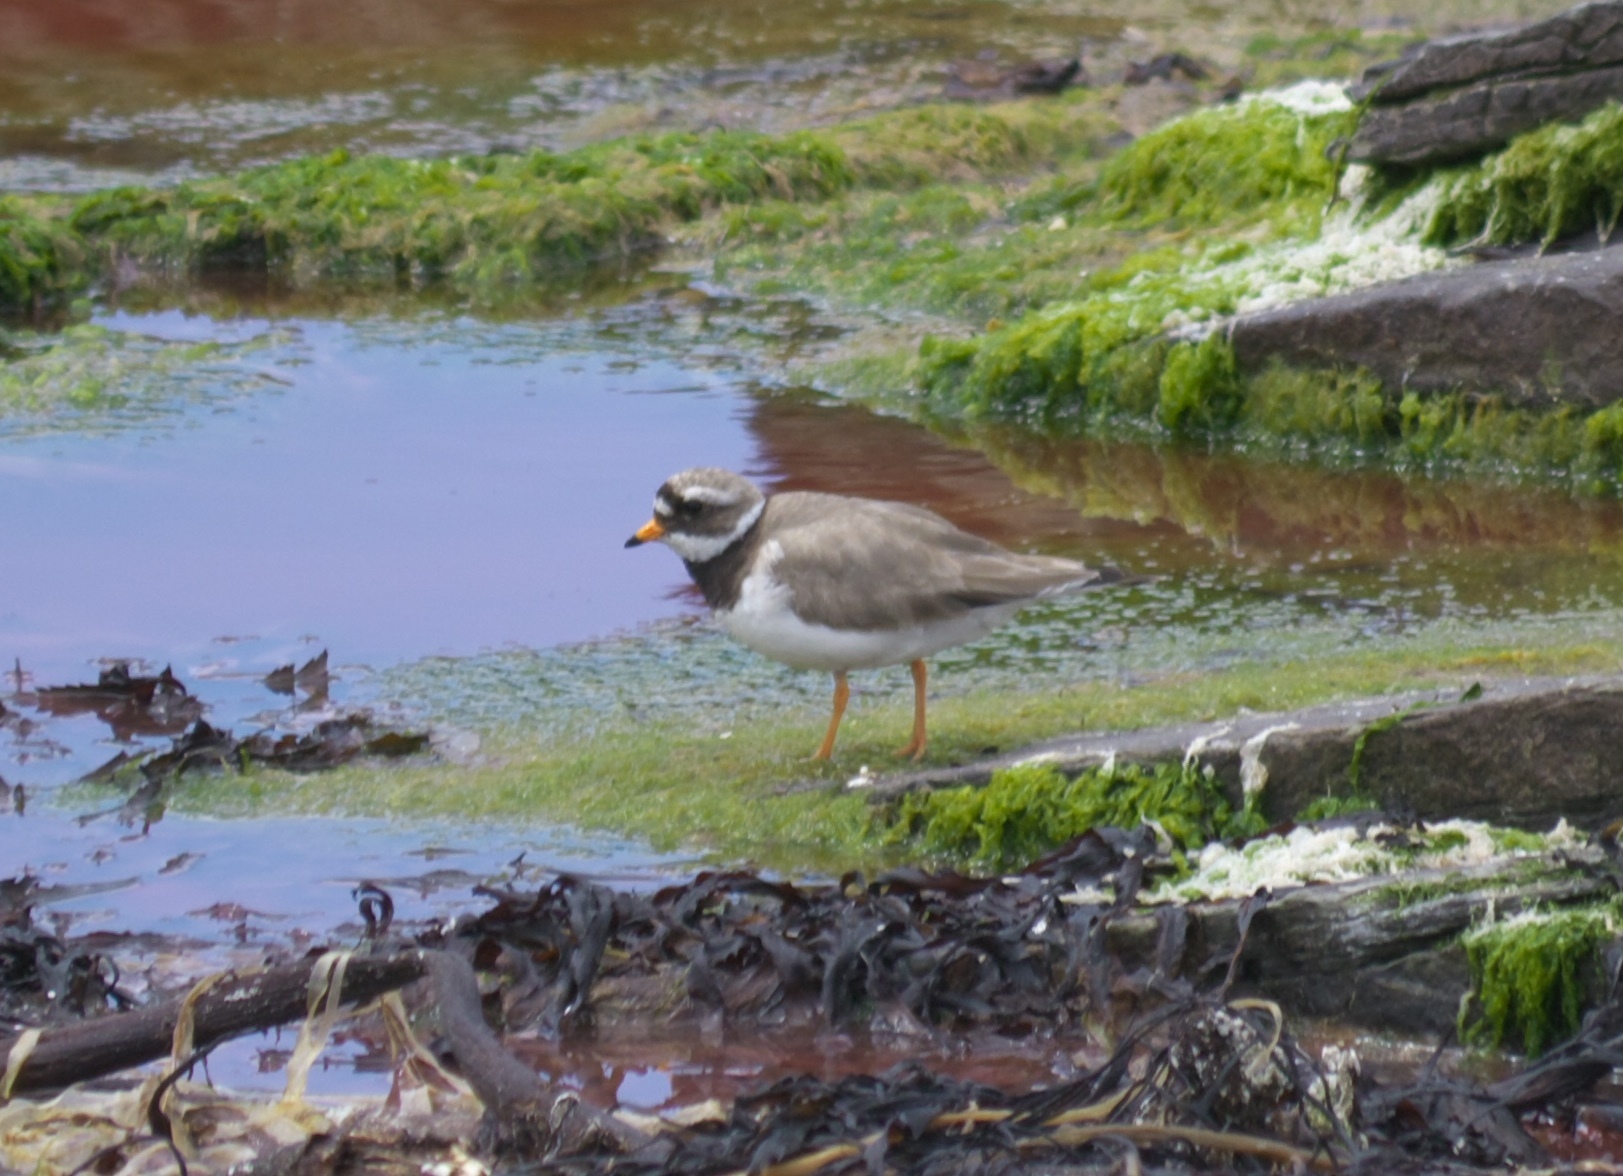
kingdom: Animalia
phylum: Chordata
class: Aves
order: Charadriiformes
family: Charadriidae
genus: Charadrius
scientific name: Charadrius hiaticula
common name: Common ringed plover
